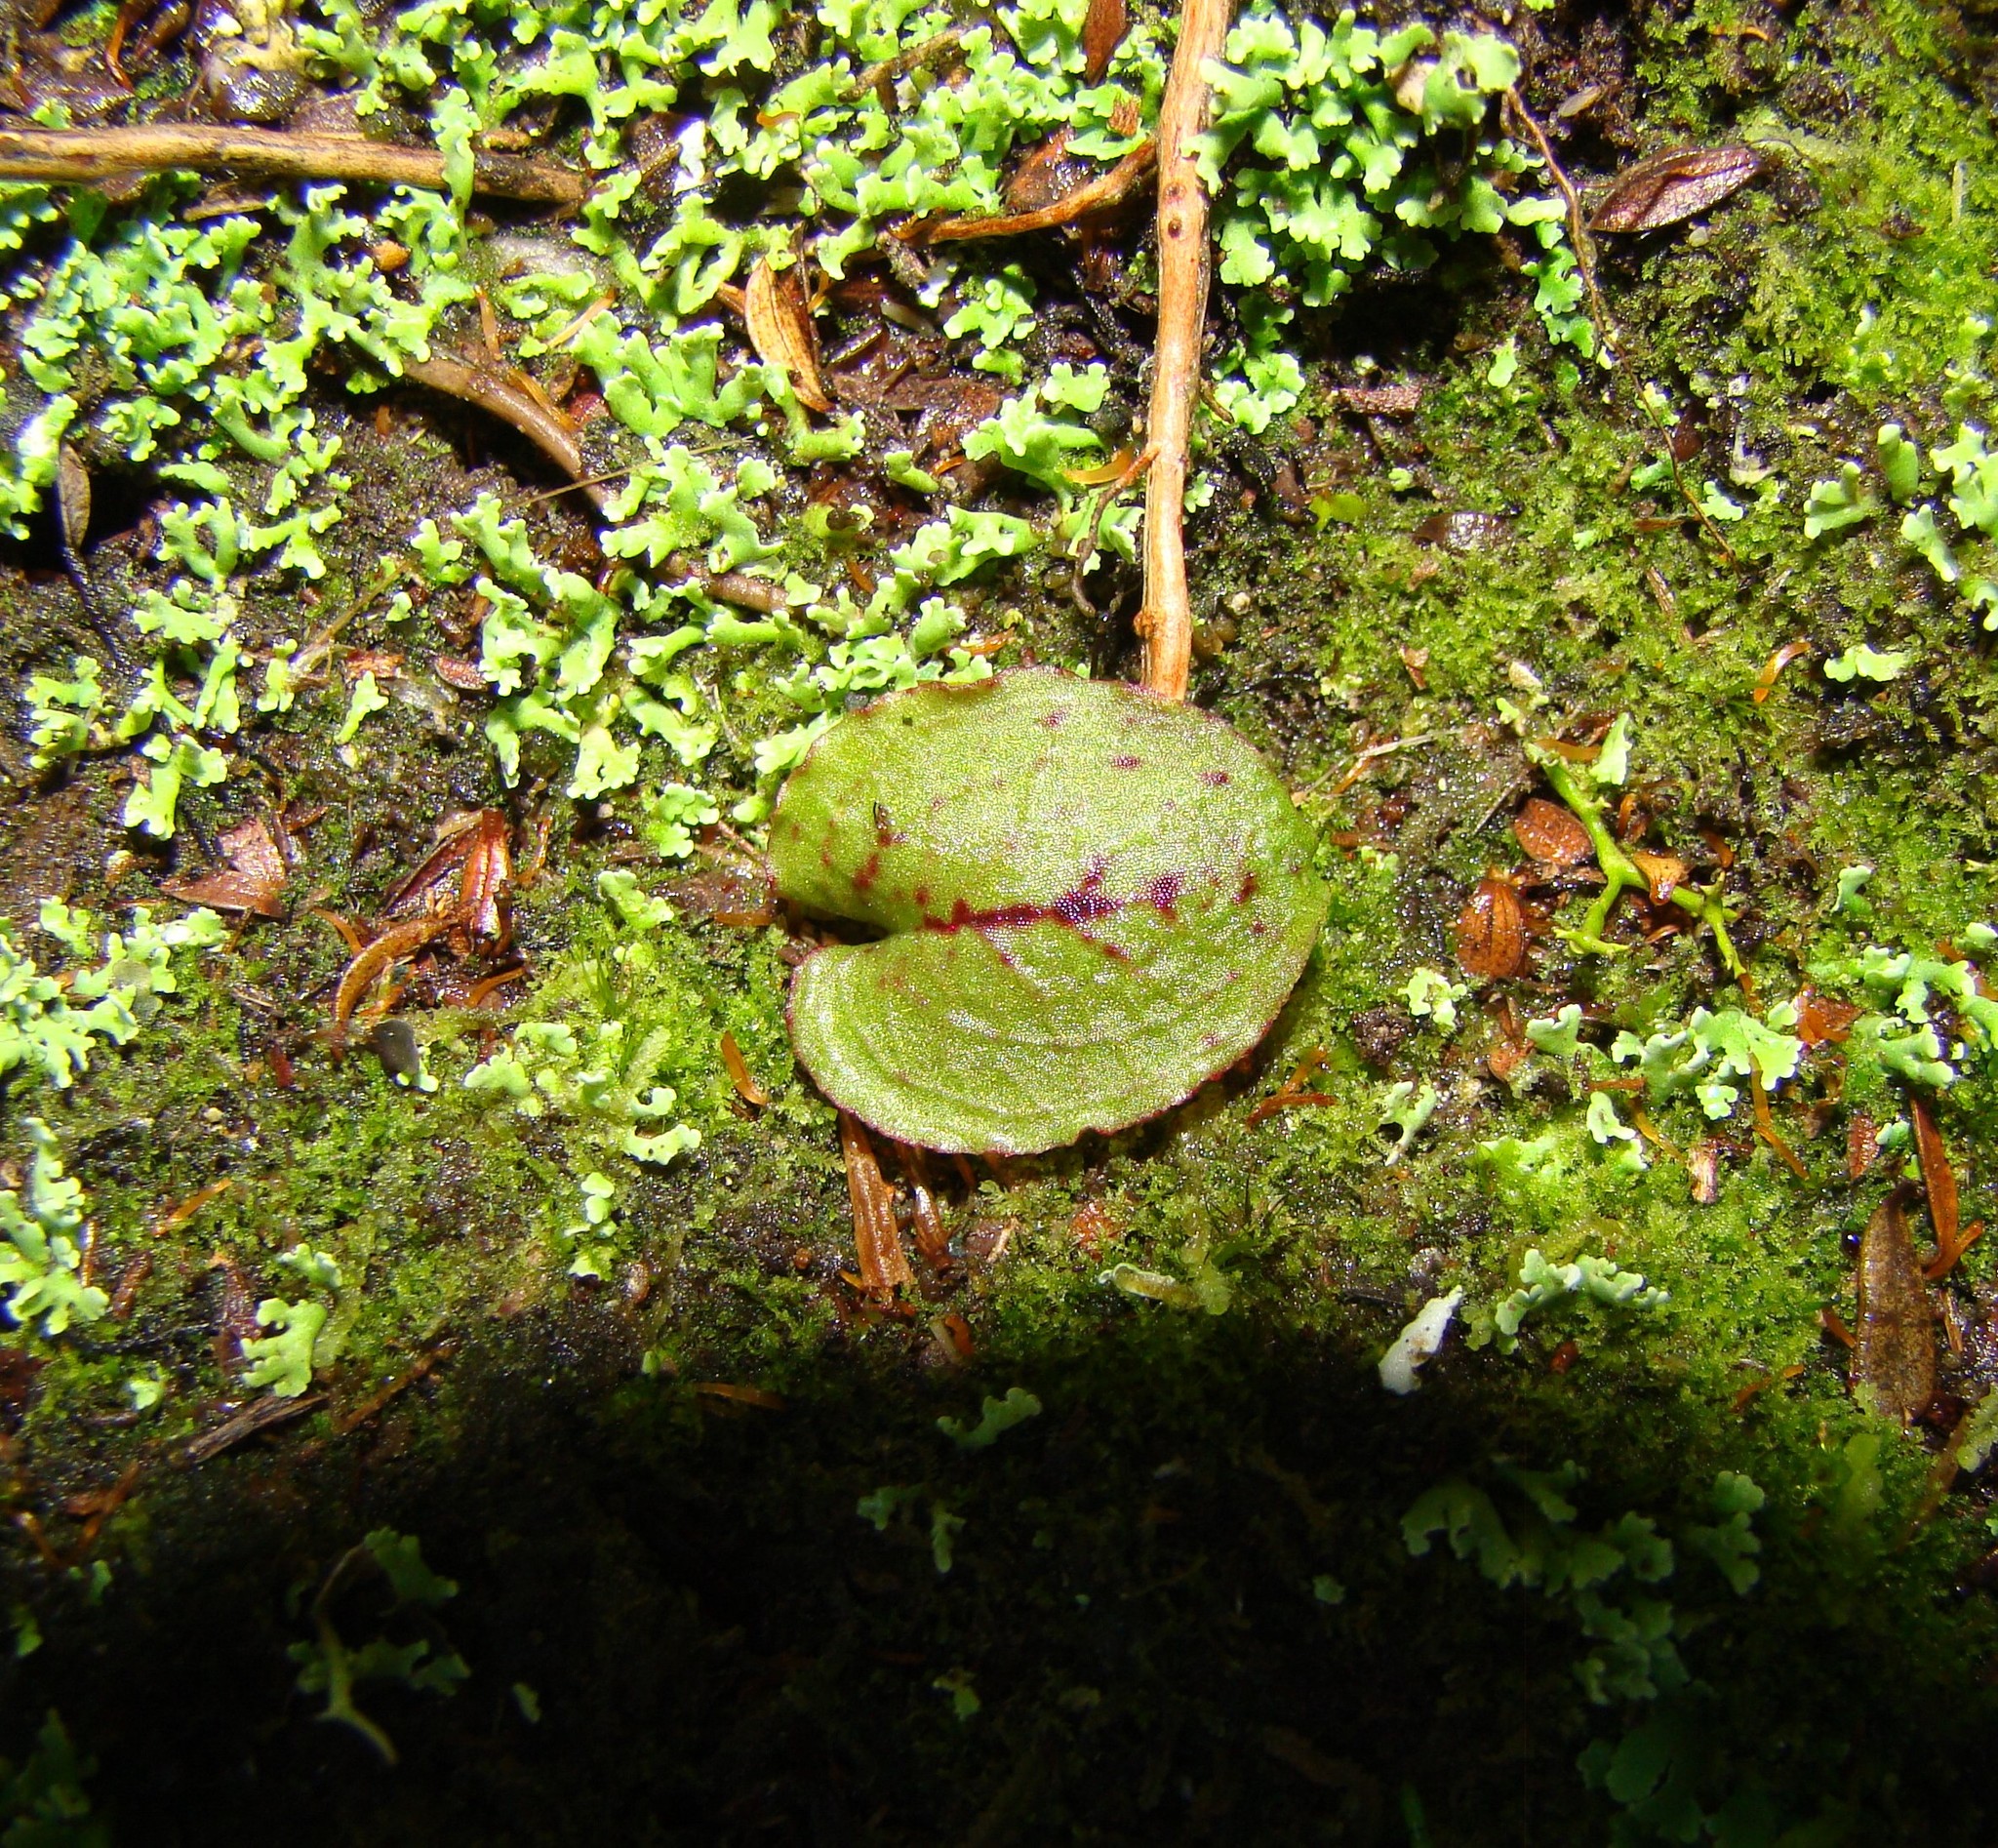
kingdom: Plantae
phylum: Tracheophyta
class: Liliopsida
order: Asparagales
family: Orchidaceae
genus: Corybas
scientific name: Corybas oblongus
